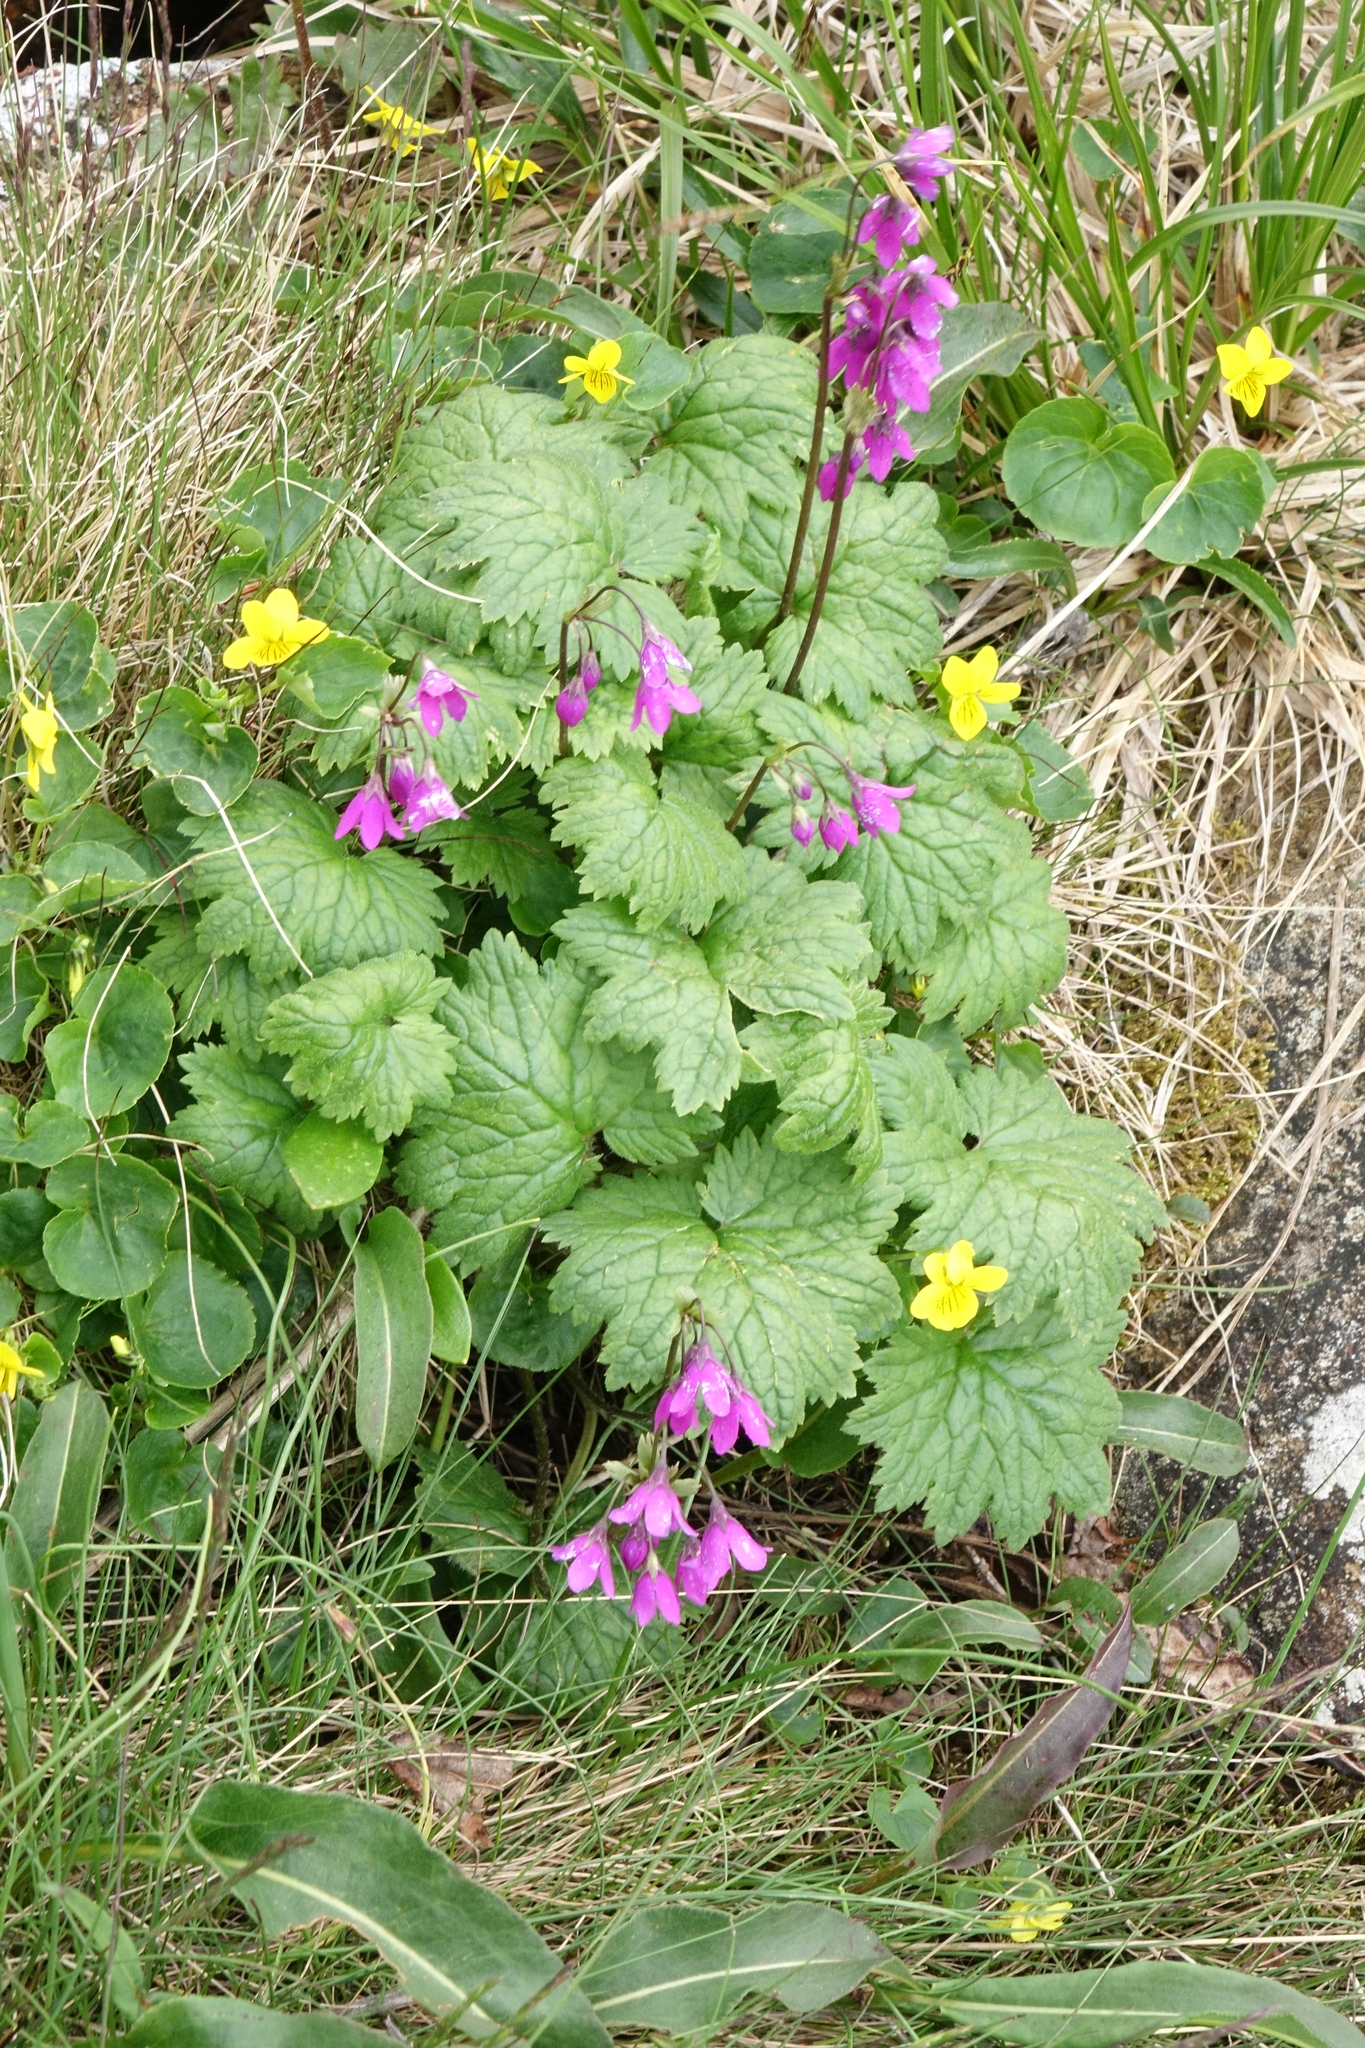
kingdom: Plantae
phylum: Tracheophyta
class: Magnoliopsida
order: Ericales
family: Primulaceae
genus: Primula
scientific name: Primula matthioli
